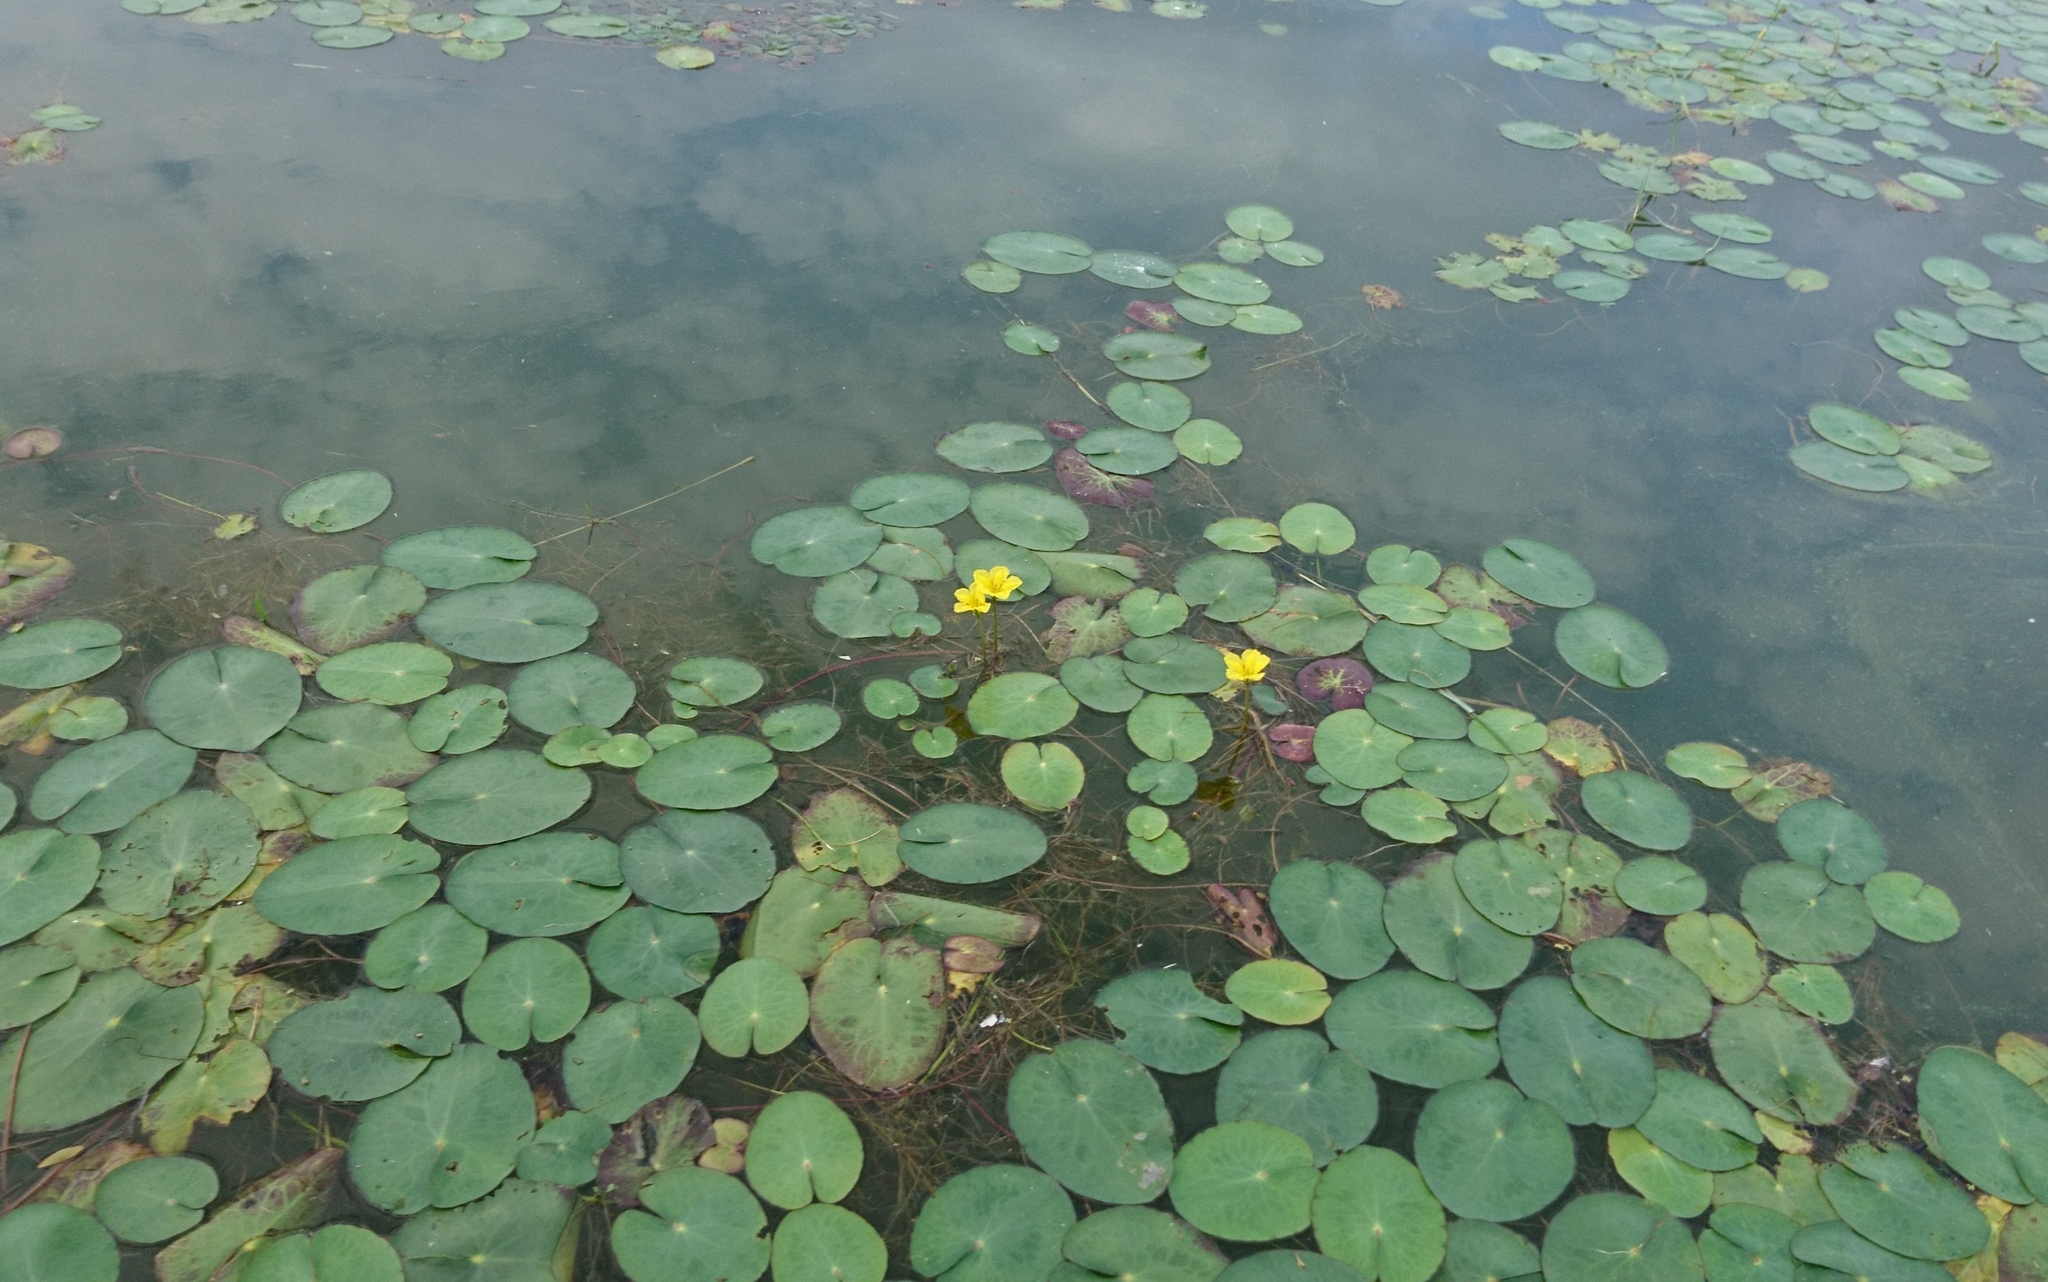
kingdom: Plantae
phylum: Tracheophyta
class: Magnoliopsida
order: Asterales
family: Menyanthaceae
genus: Nymphoides
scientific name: Nymphoides peltata
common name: Fringed water-lily
